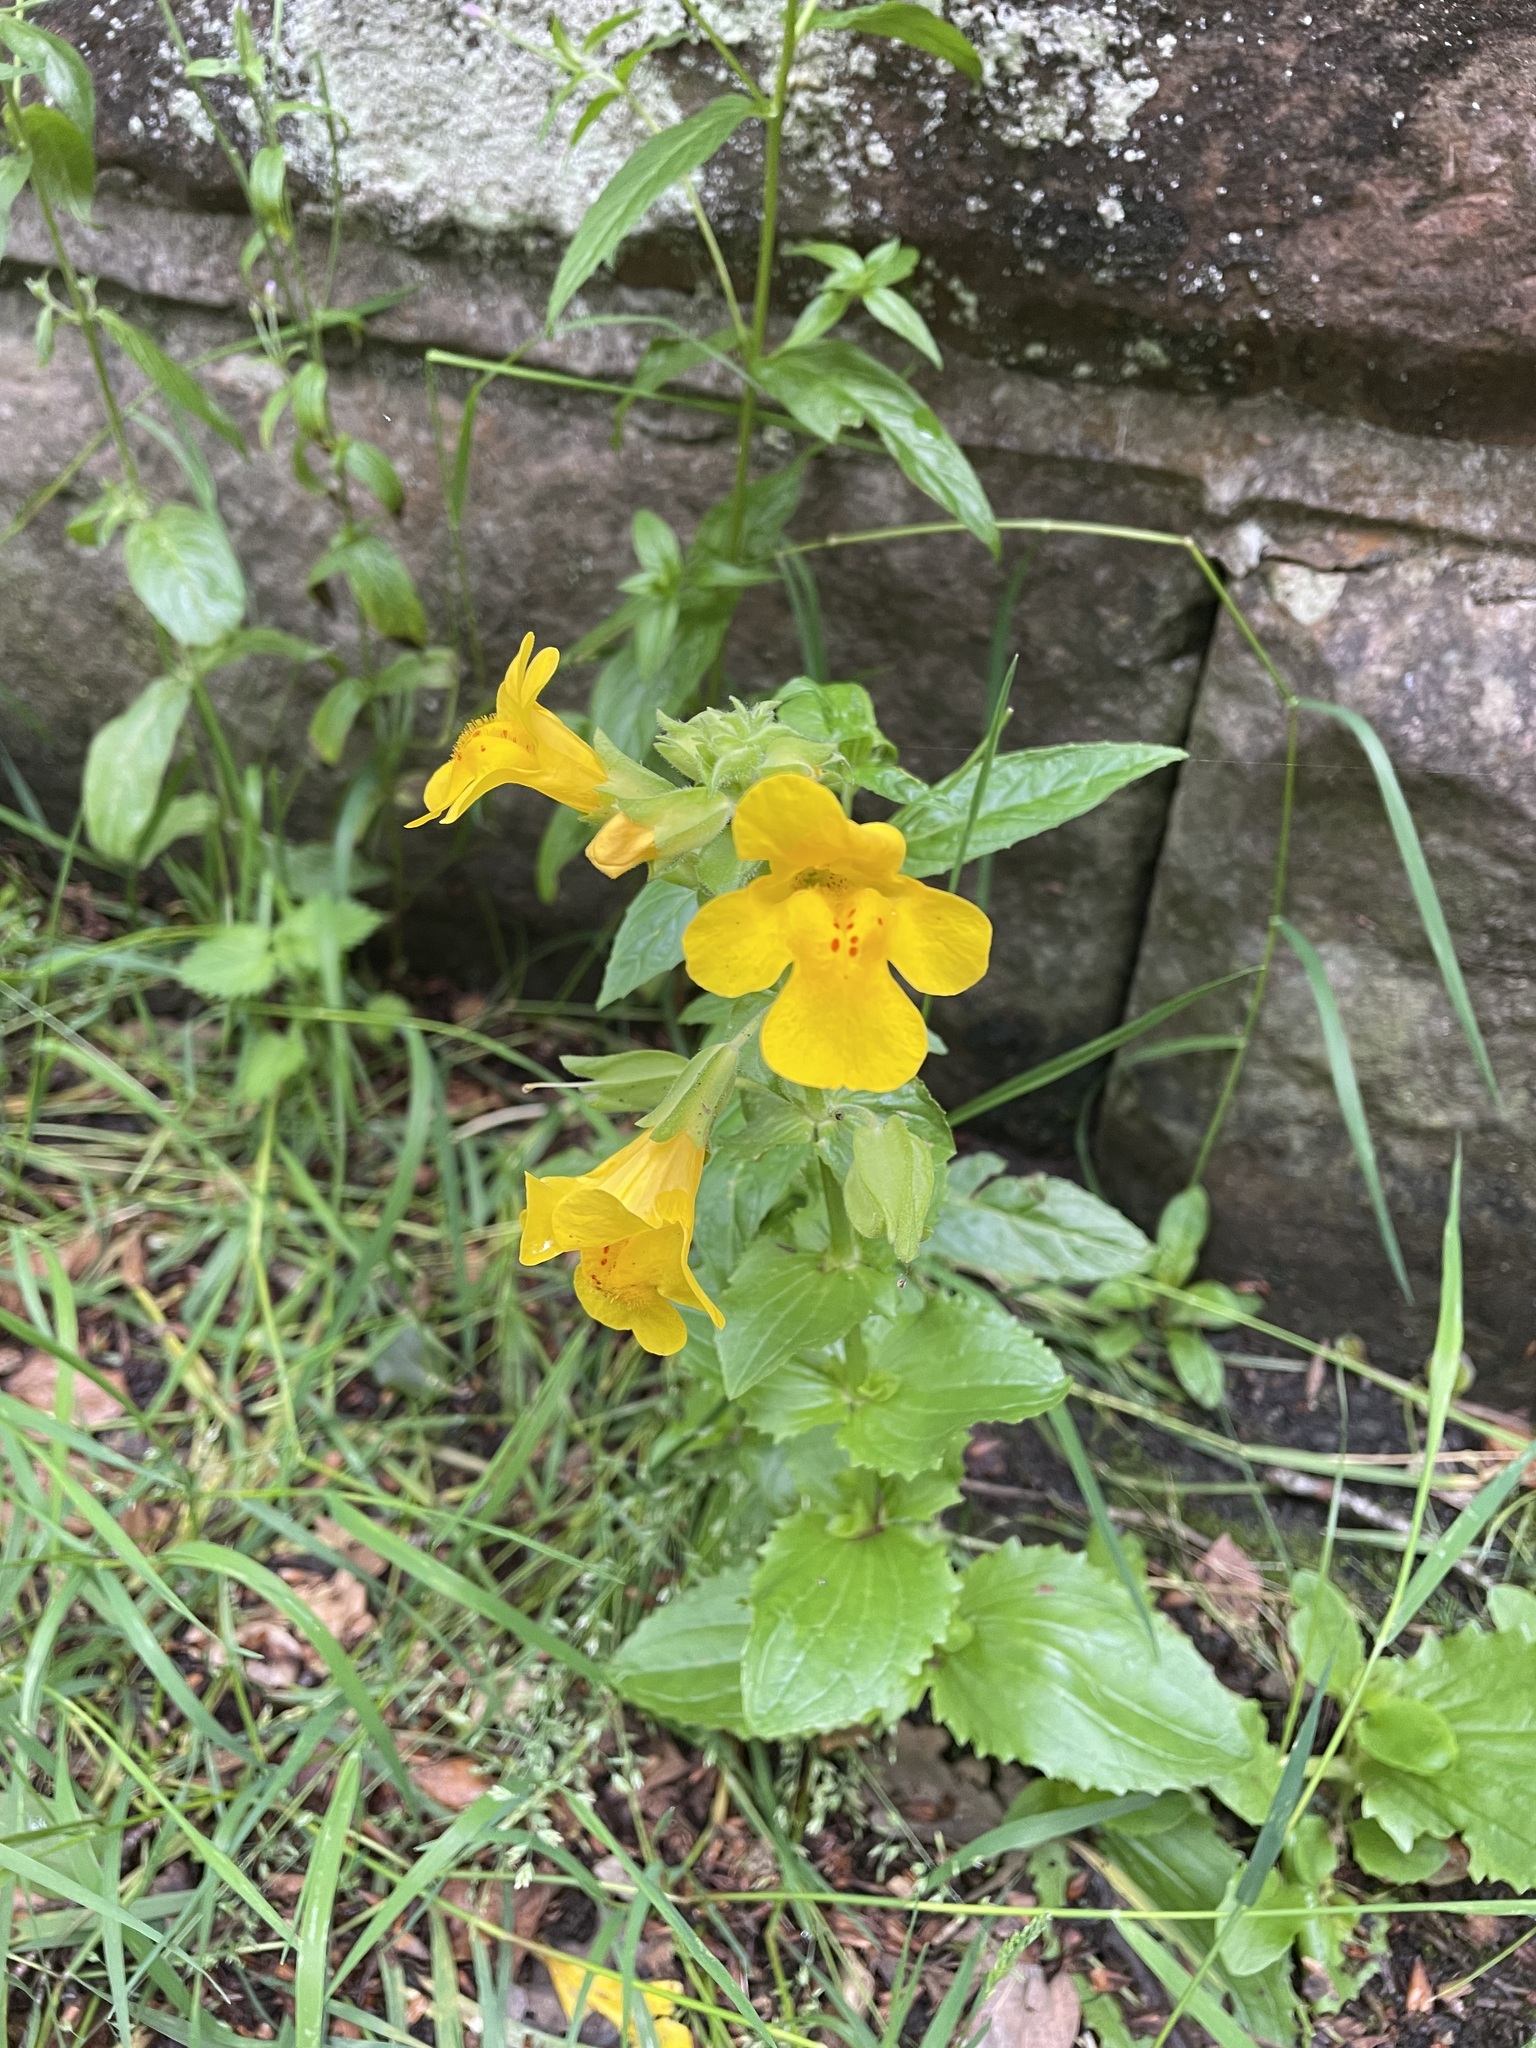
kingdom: Plantae
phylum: Tracheophyta
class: Magnoliopsida
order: Lamiales
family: Phrymaceae
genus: Erythranthe
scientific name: Erythranthe guttata
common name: Monkeyflower
